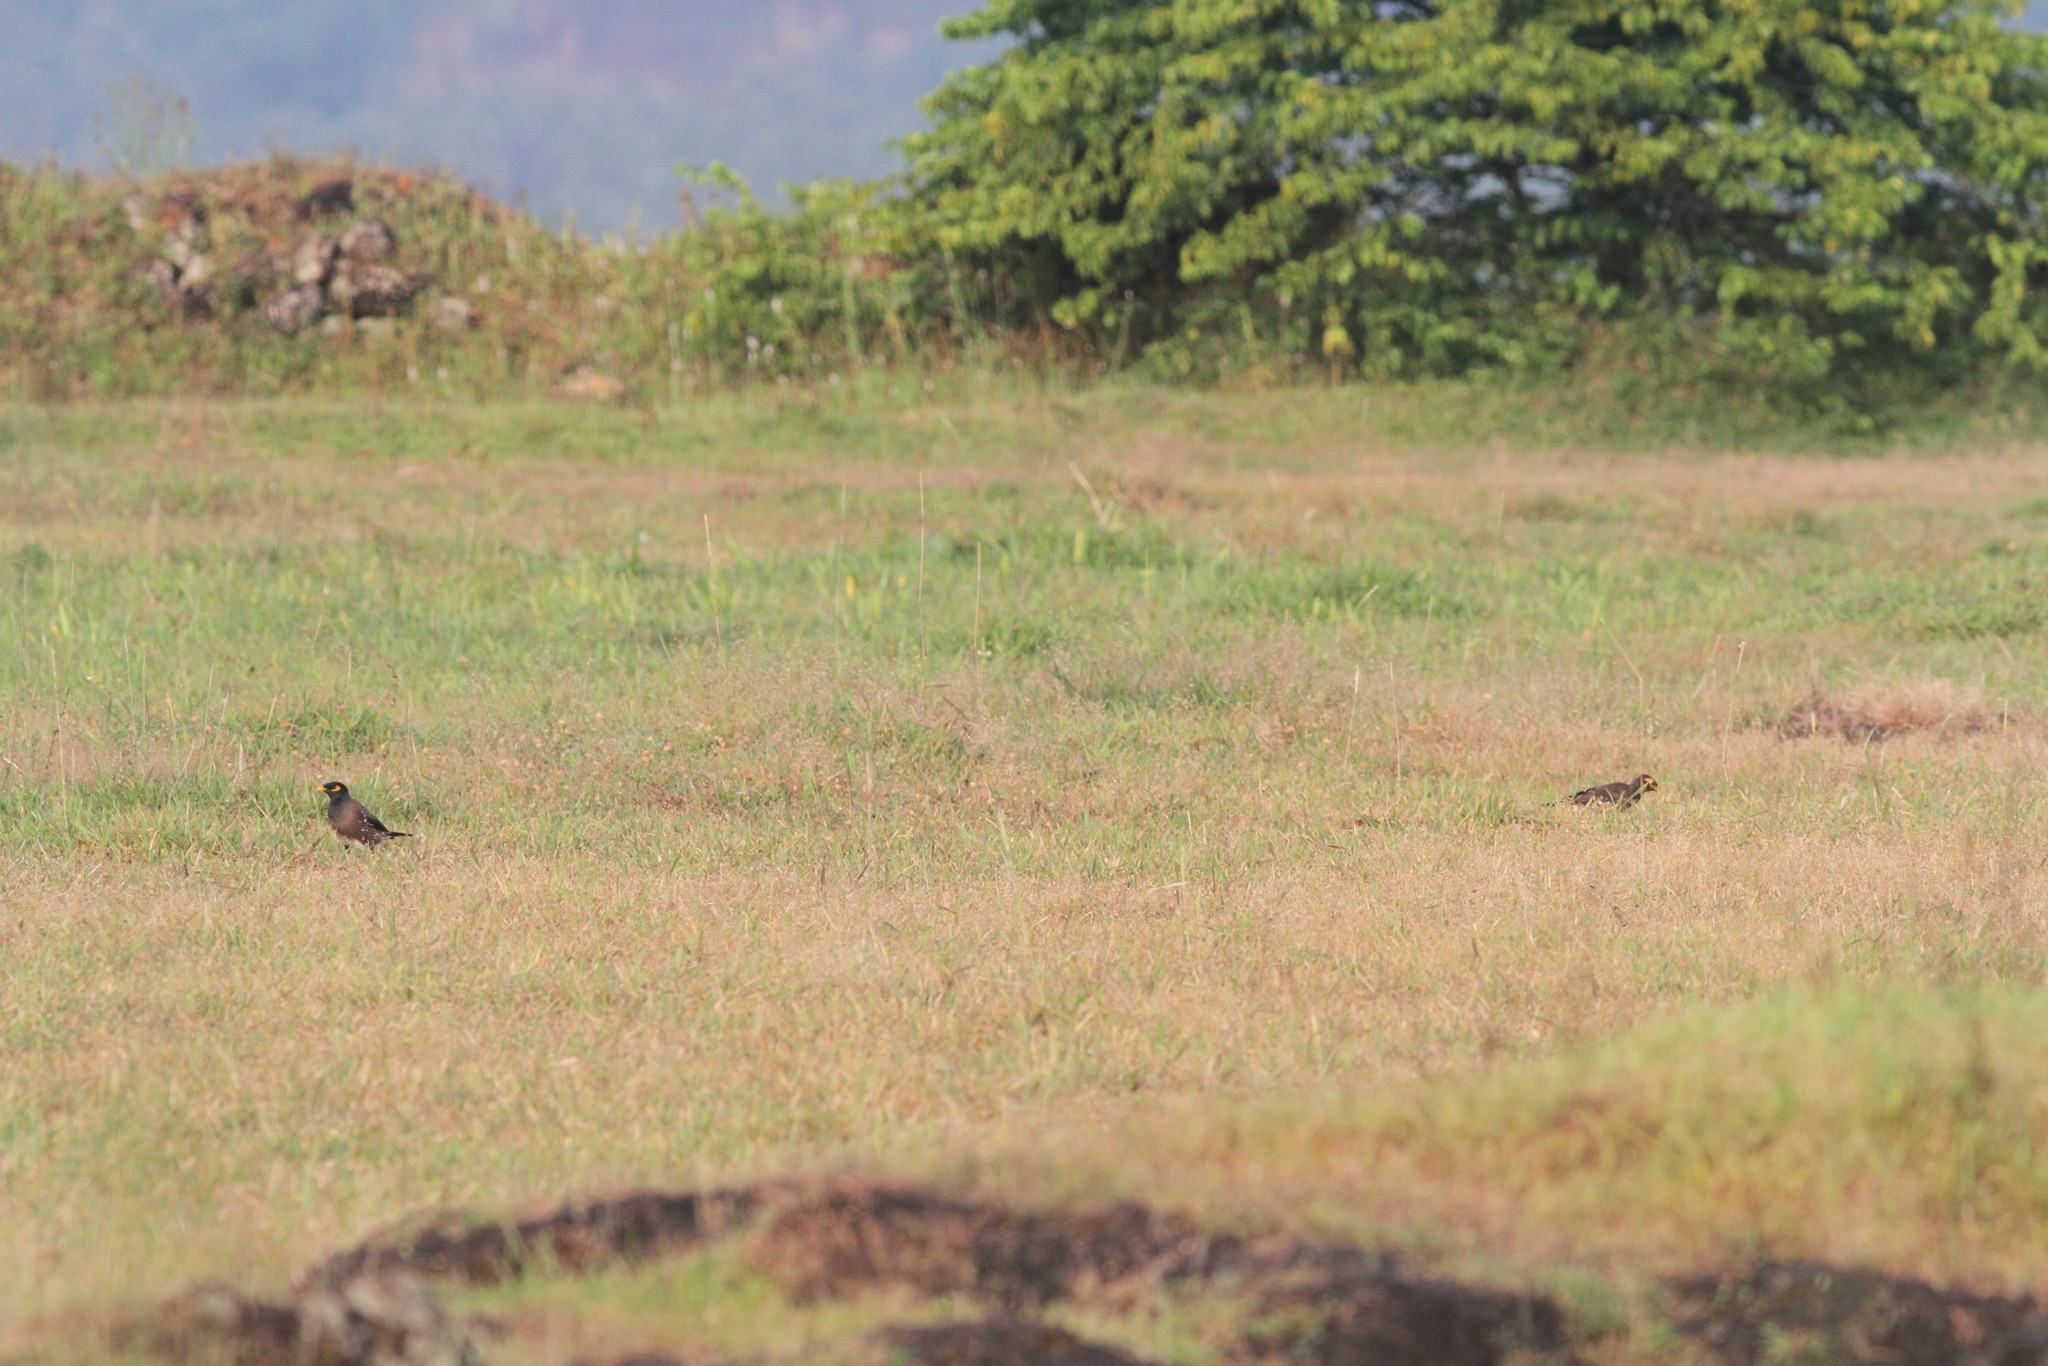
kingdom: Animalia
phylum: Chordata
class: Aves
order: Passeriformes
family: Sturnidae
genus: Acridotheres
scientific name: Acridotheres tristis
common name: Common myna
